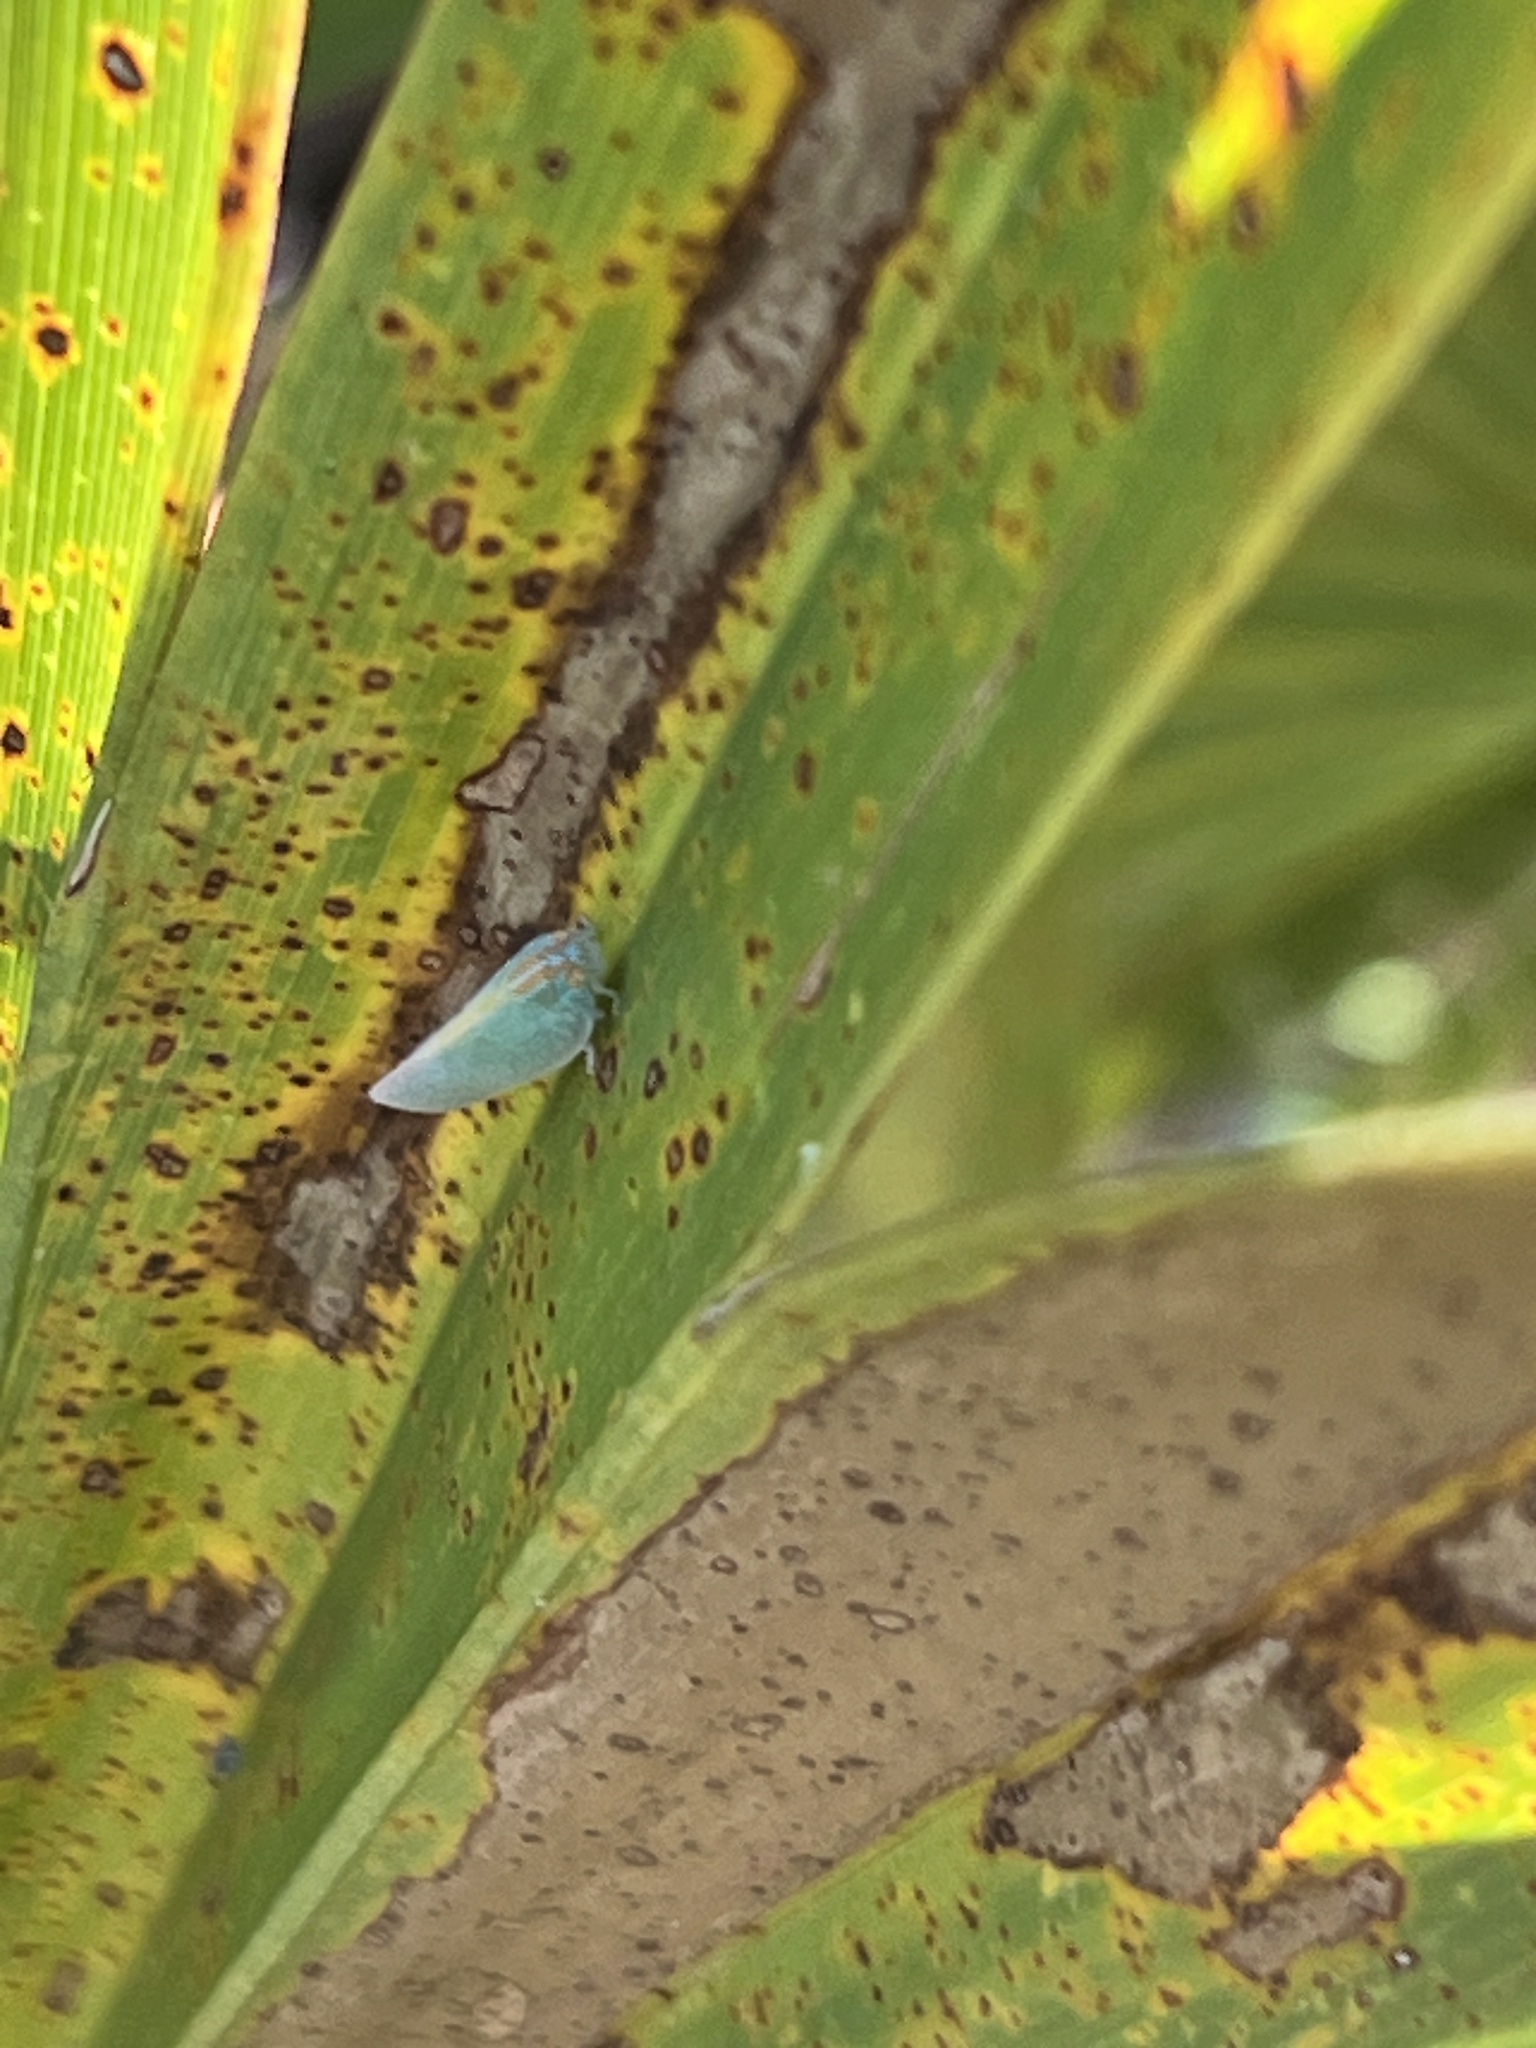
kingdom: Animalia
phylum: Arthropoda
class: Insecta
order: Hemiptera
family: Flatidae
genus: Ormenaria
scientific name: Ormenaria rufifascia
